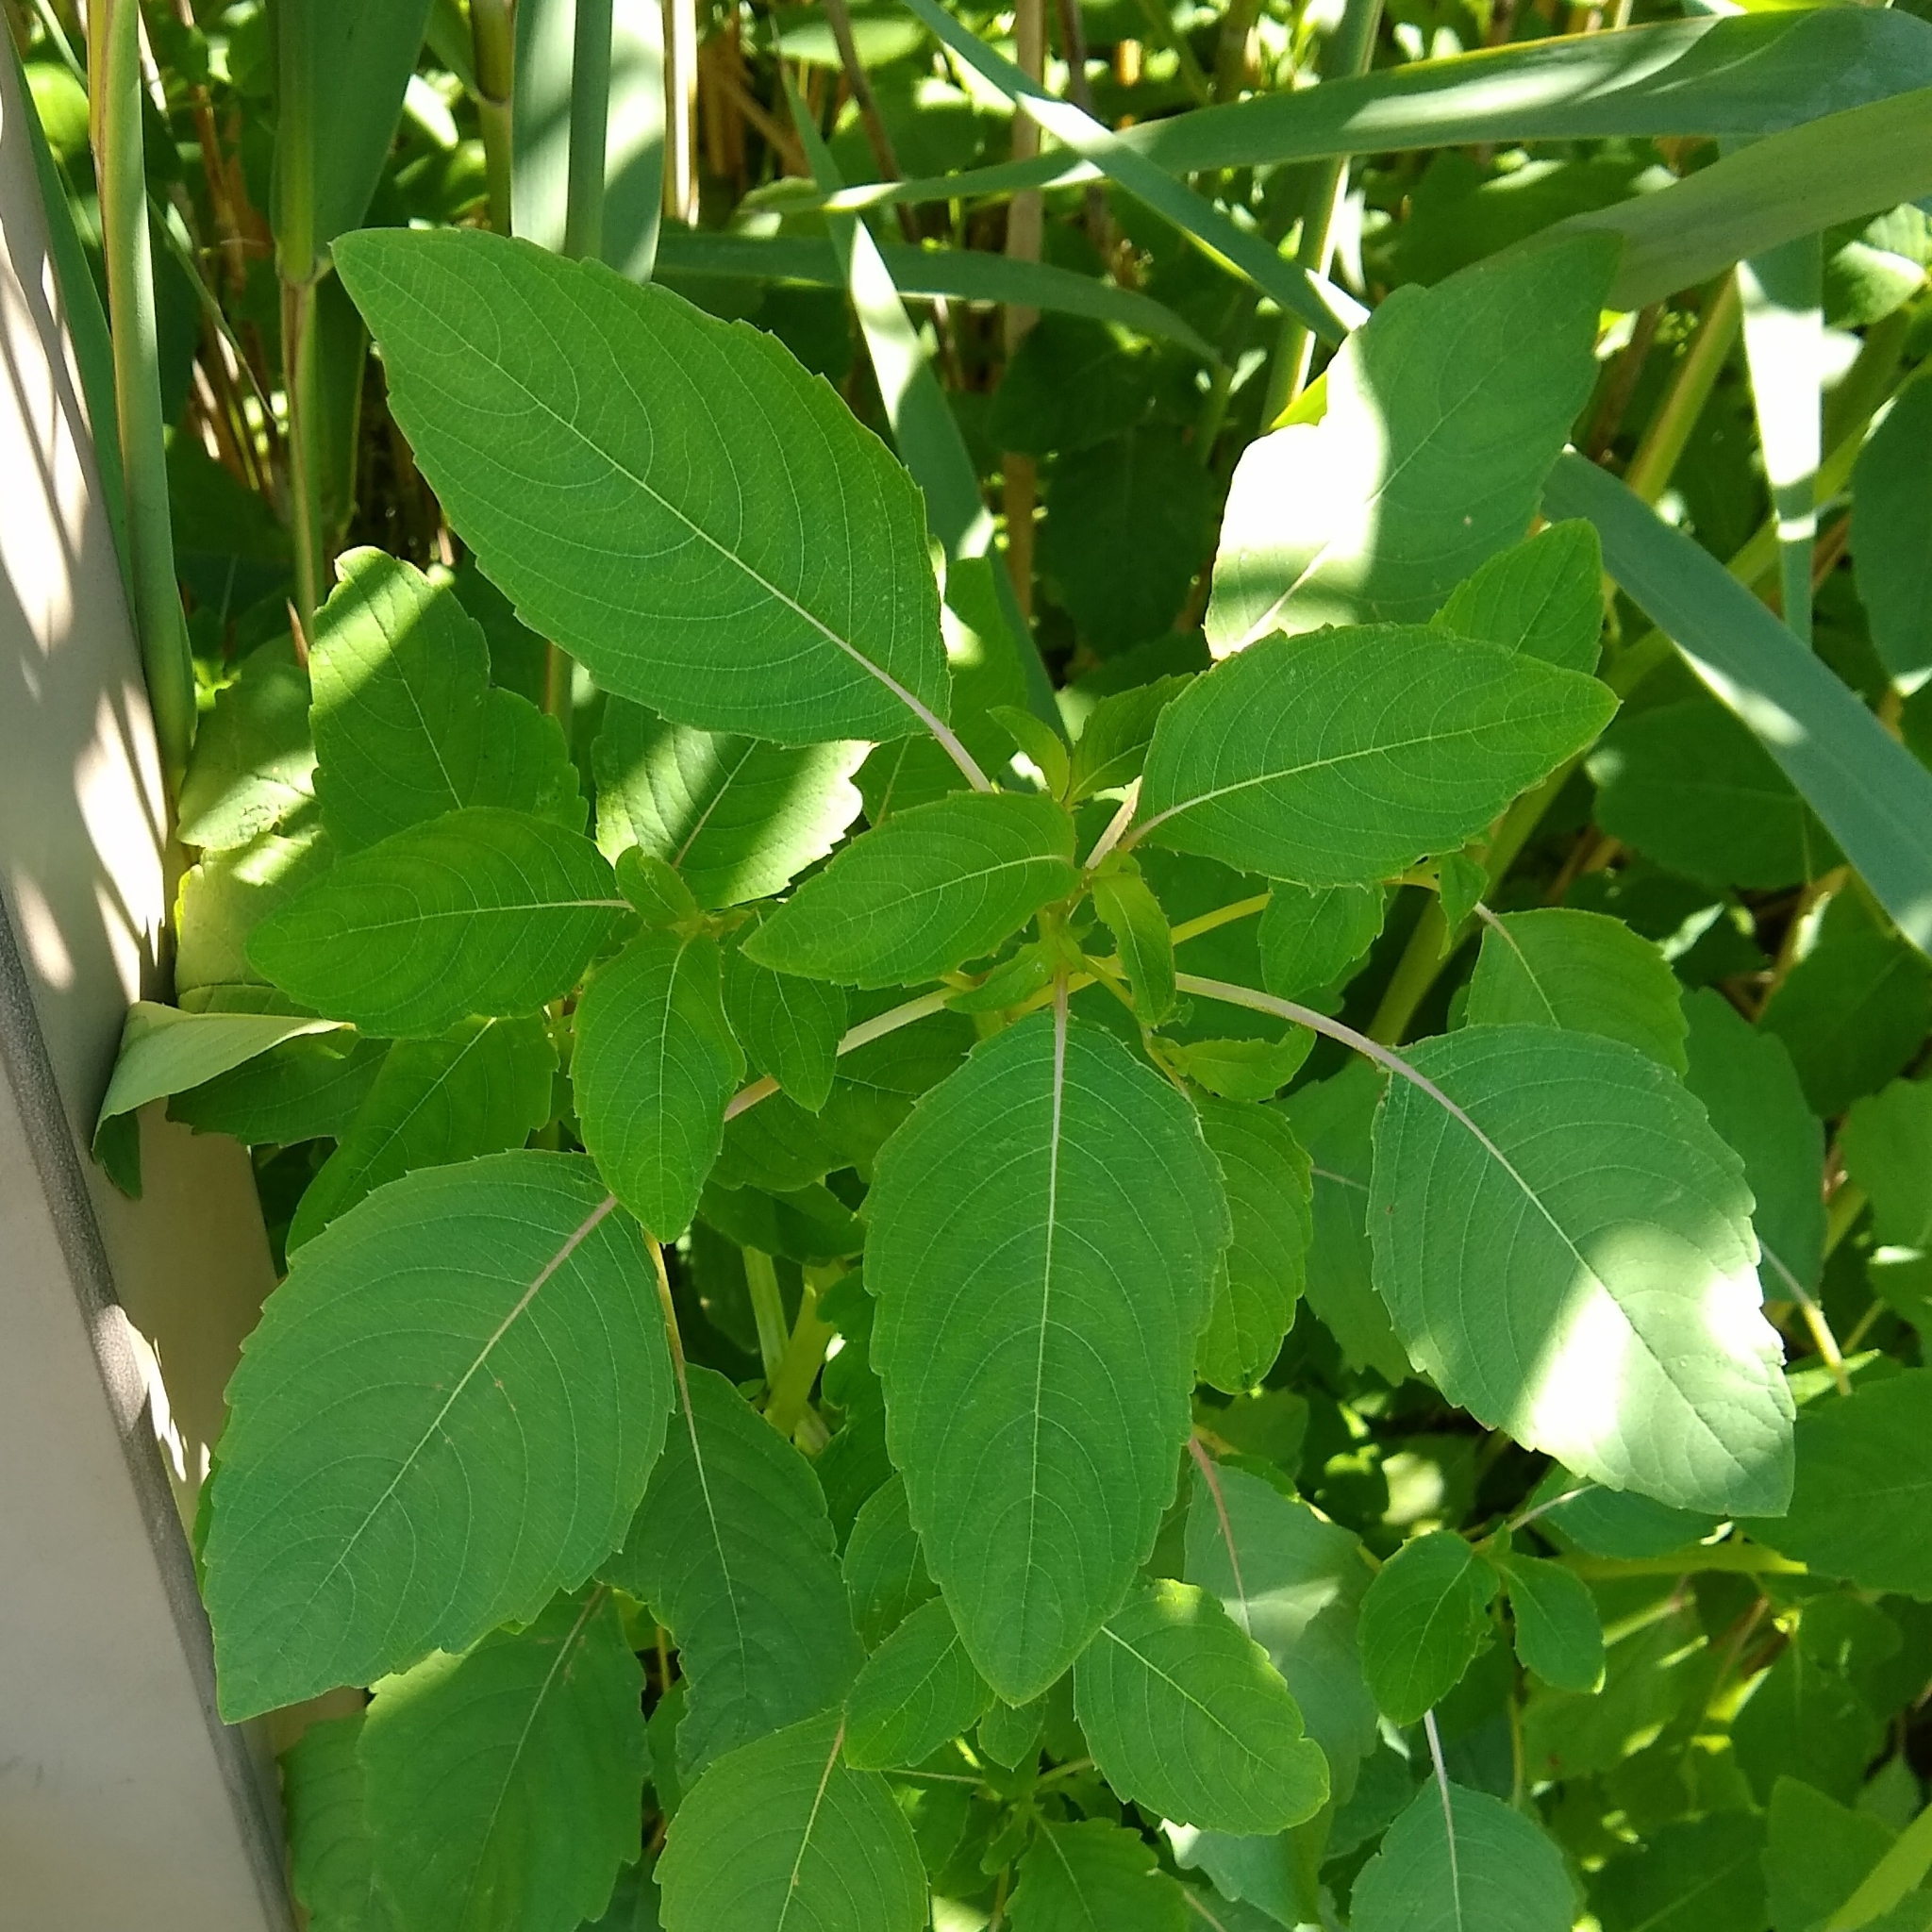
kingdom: Plantae
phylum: Tracheophyta
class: Magnoliopsida
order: Ericales
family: Balsaminaceae
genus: Impatiens
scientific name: Impatiens pallida
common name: Pale snapweed
